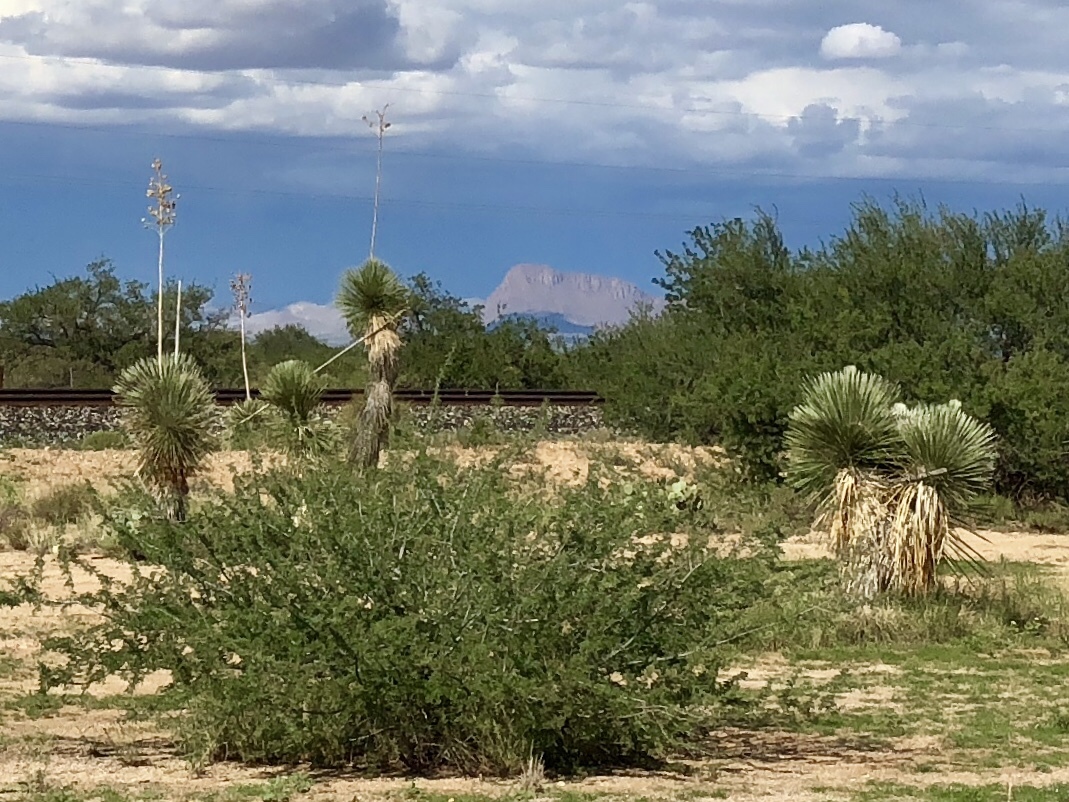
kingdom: Plantae
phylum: Tracheophyta
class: Liliopsida
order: Asparagales
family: Asparagaceae
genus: Yucca
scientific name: Yucca elata
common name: Palmella
